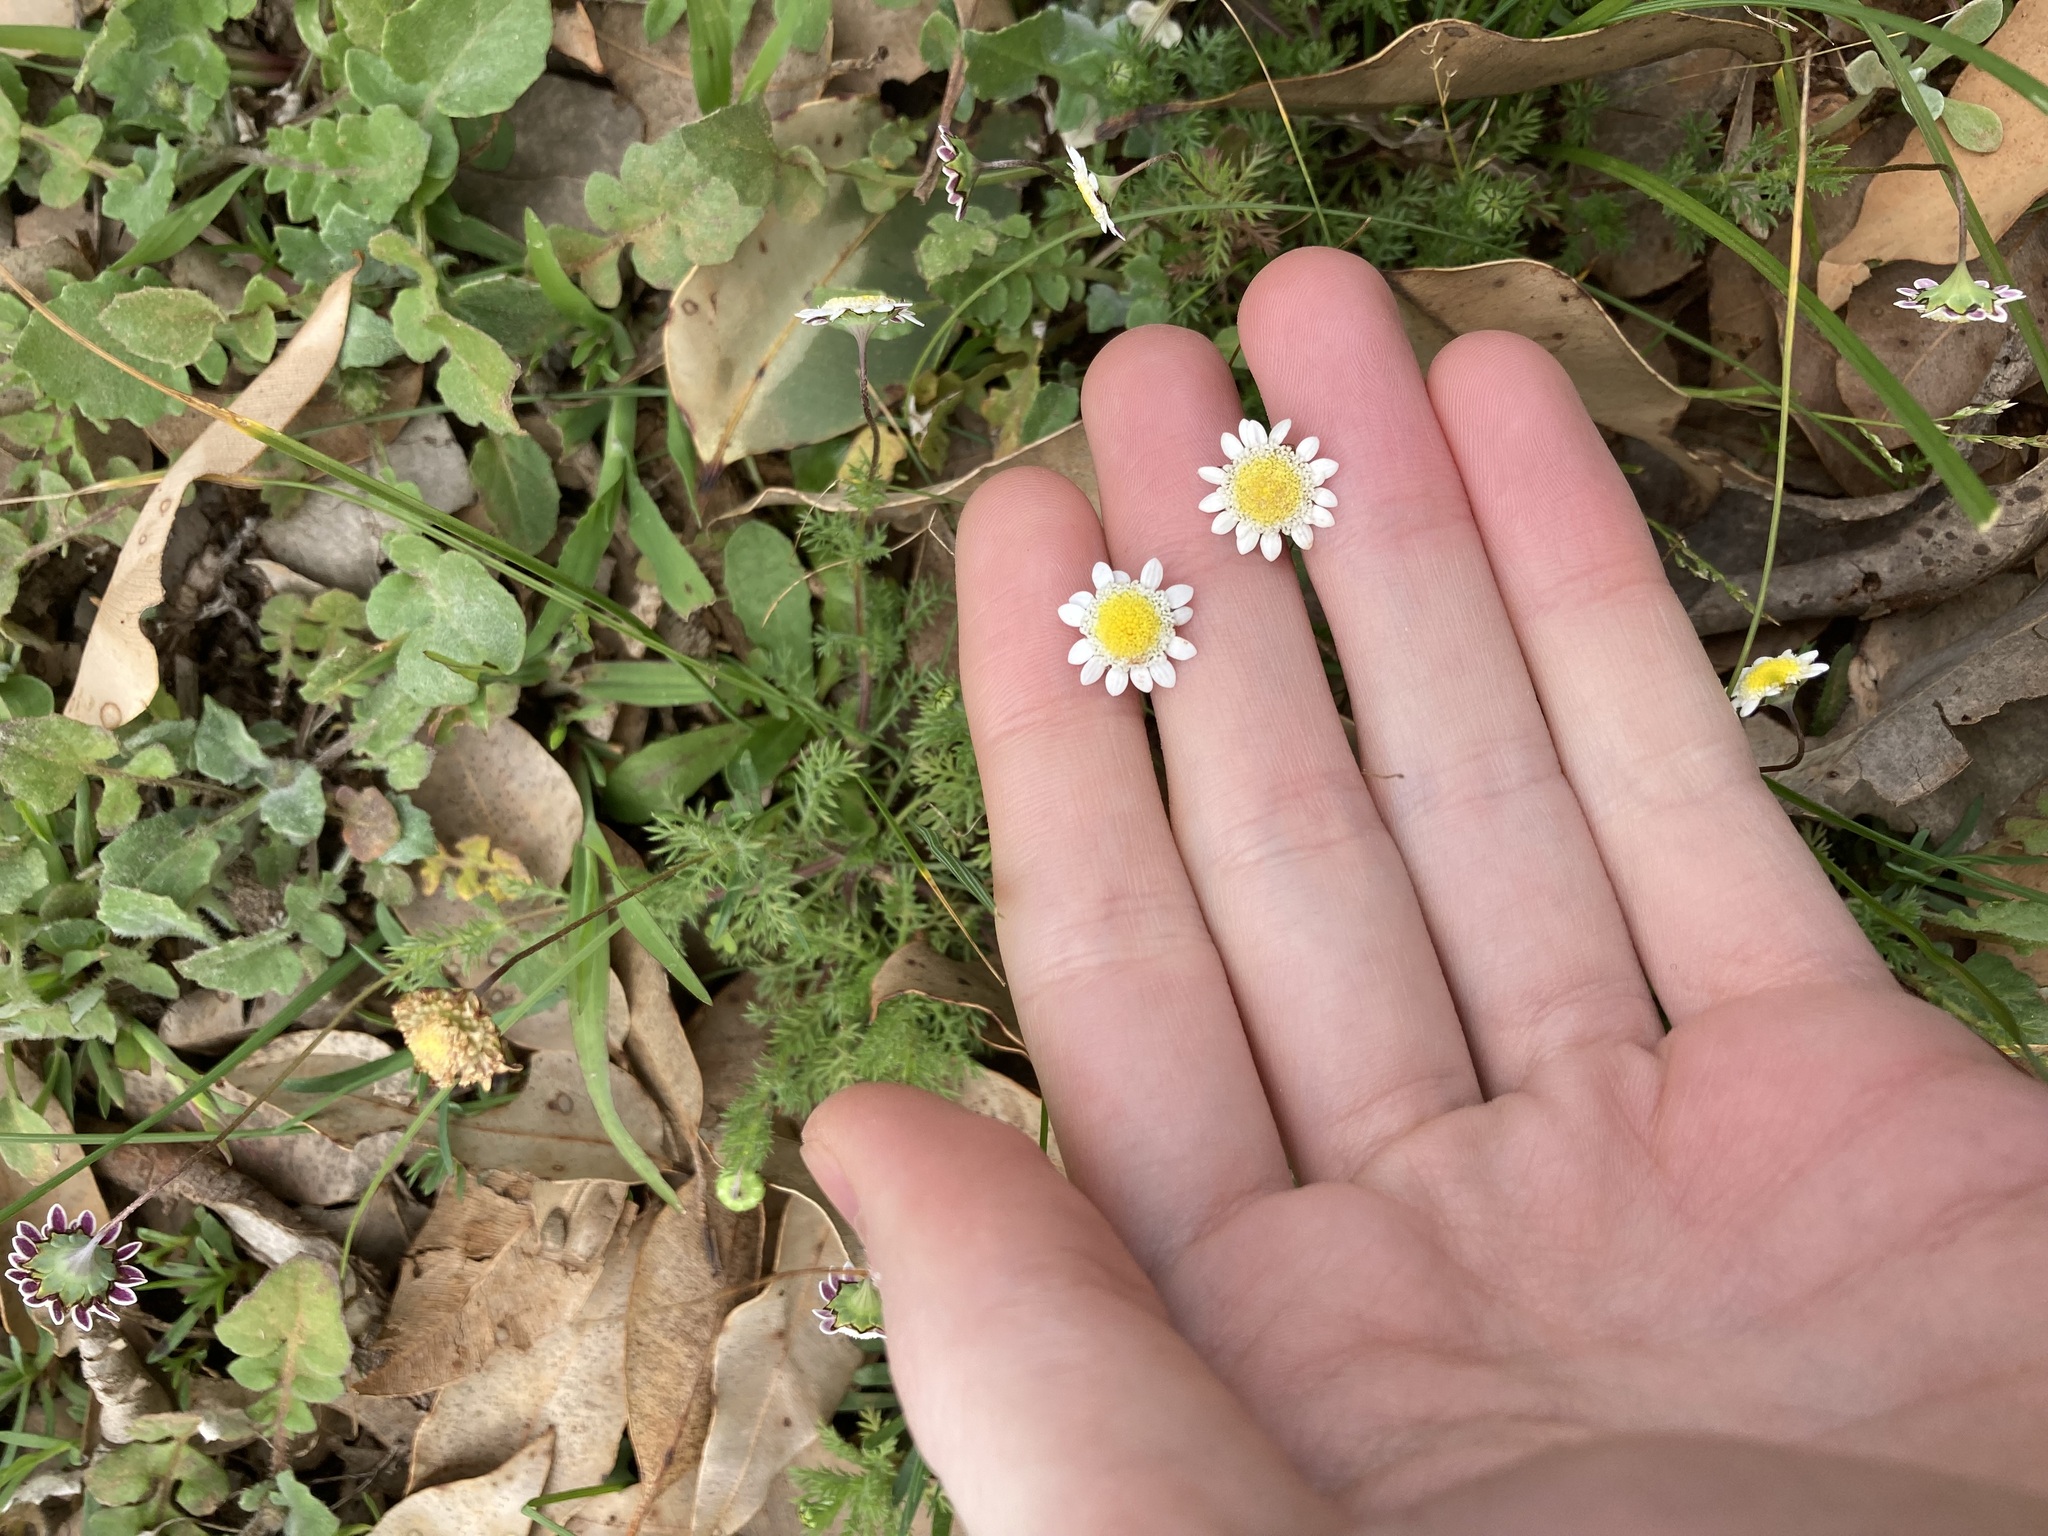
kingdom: Plantae
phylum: Tracheophyta
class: Magnoliopsida
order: Asterales
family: Asteraceae
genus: Cotula
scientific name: Cotula turbinata
